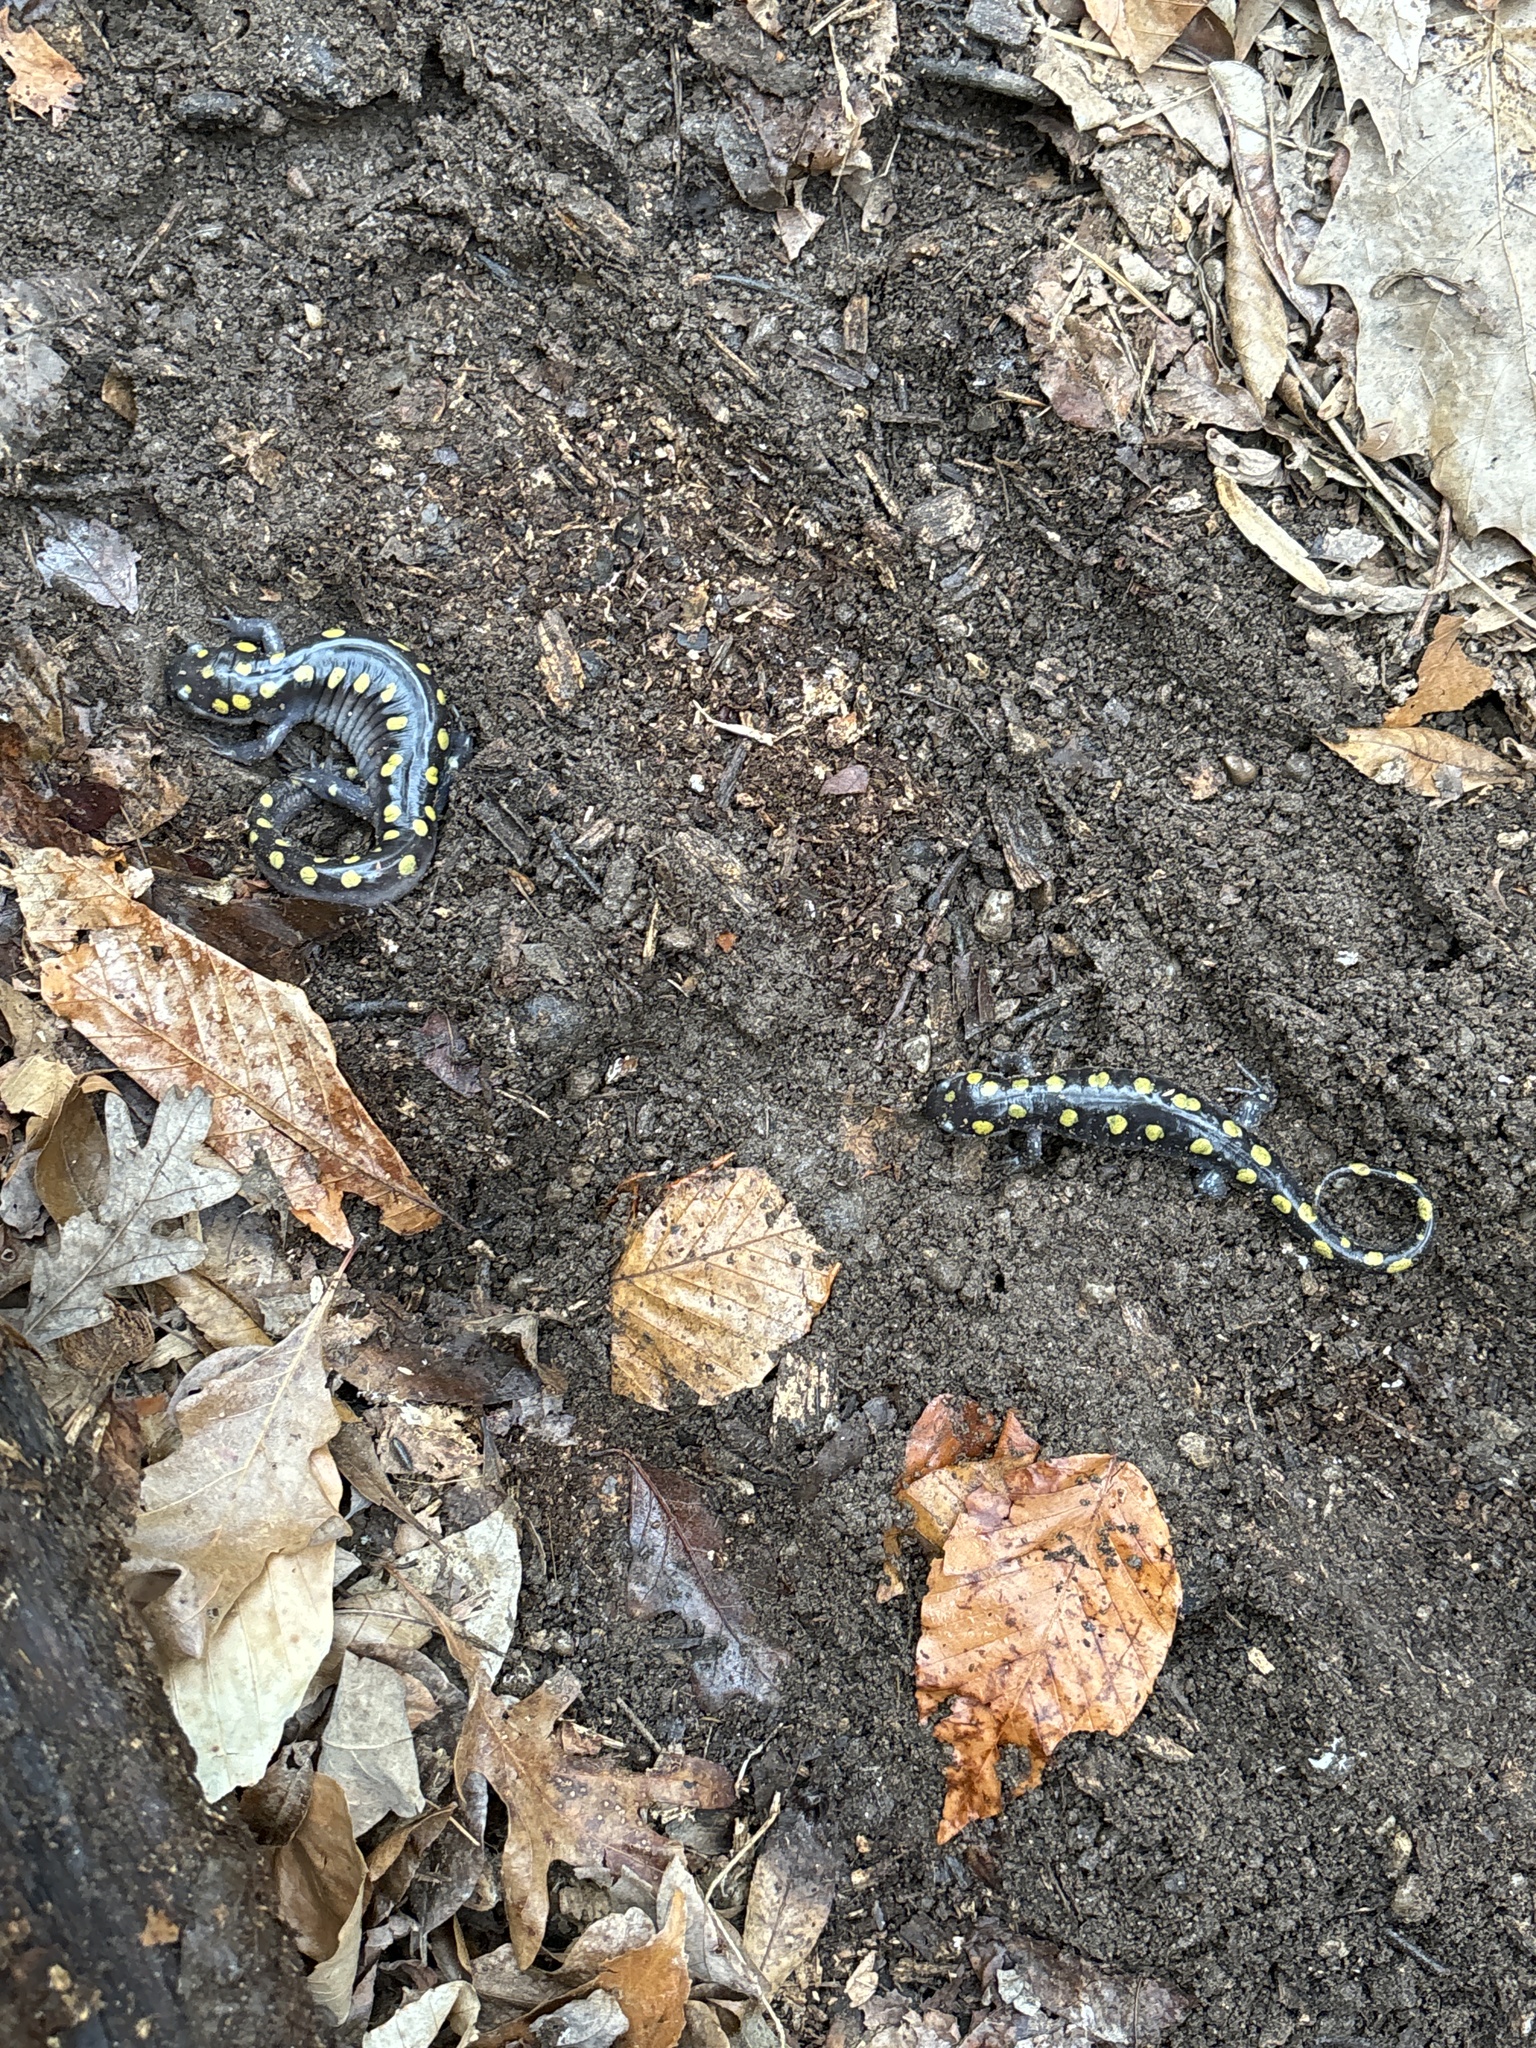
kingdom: Animalia
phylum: Chordata
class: Amphibia
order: Caudata
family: Ambystomatidae
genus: Ambystoma
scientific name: Ambystoma maculatum
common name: Spotted salamander
